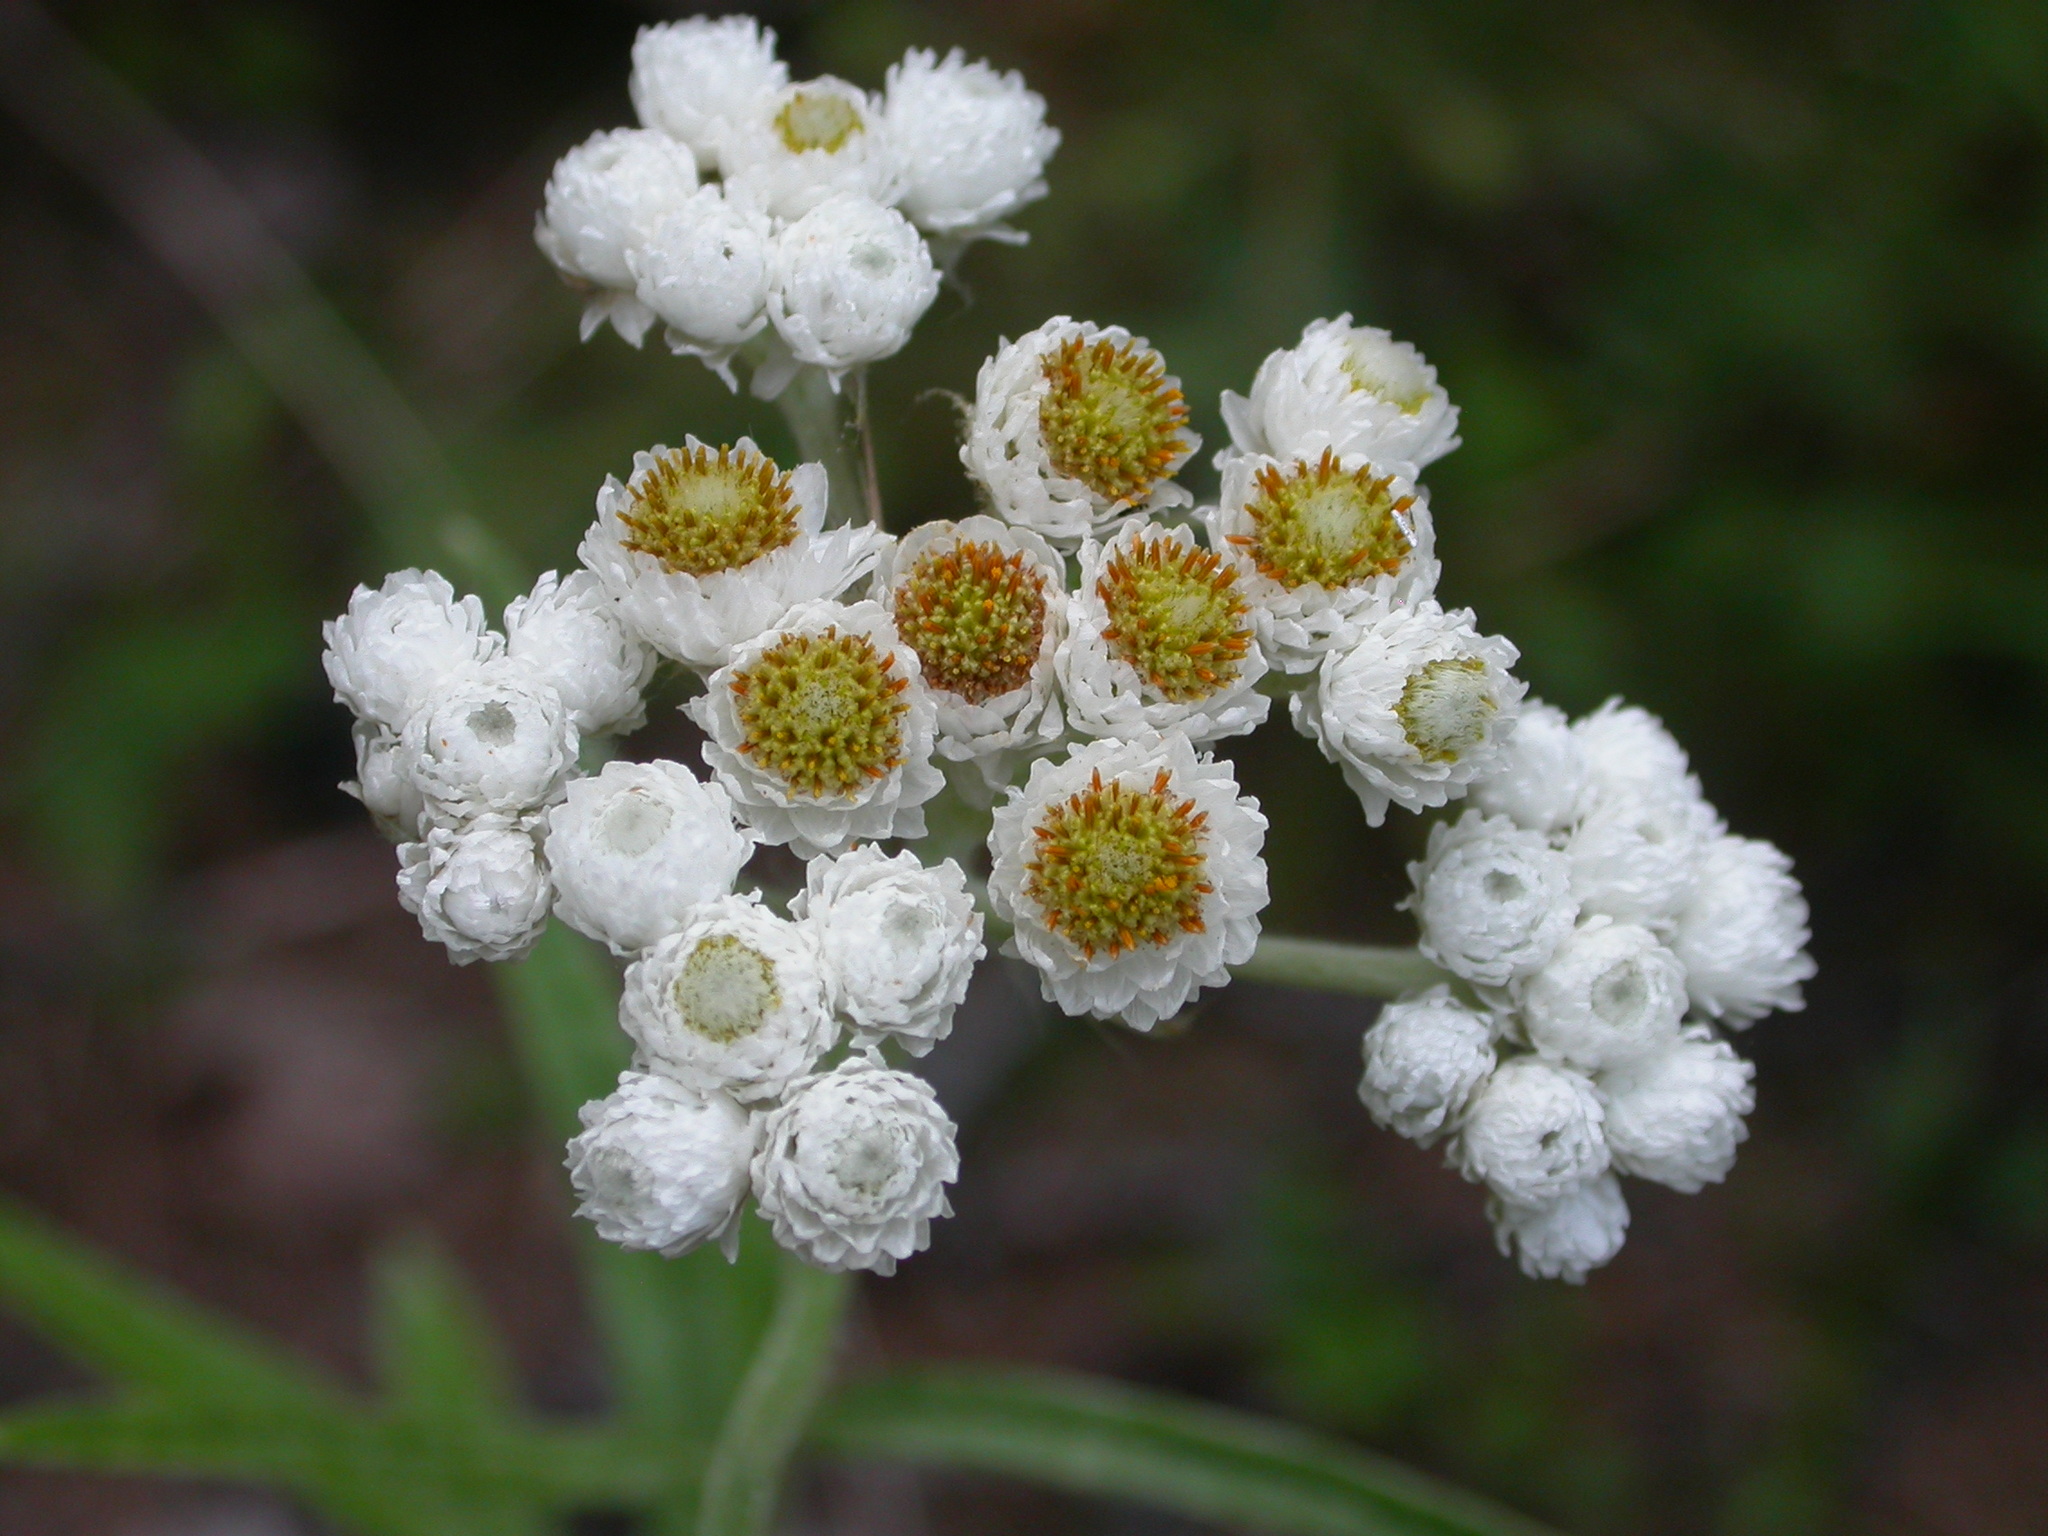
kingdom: Plantae
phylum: Tracheophyta
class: Magnoliopsida
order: Asterales
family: Asteraceae
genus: Anaphalis
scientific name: Anaphalis margaritacea
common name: Pearly everlasting
